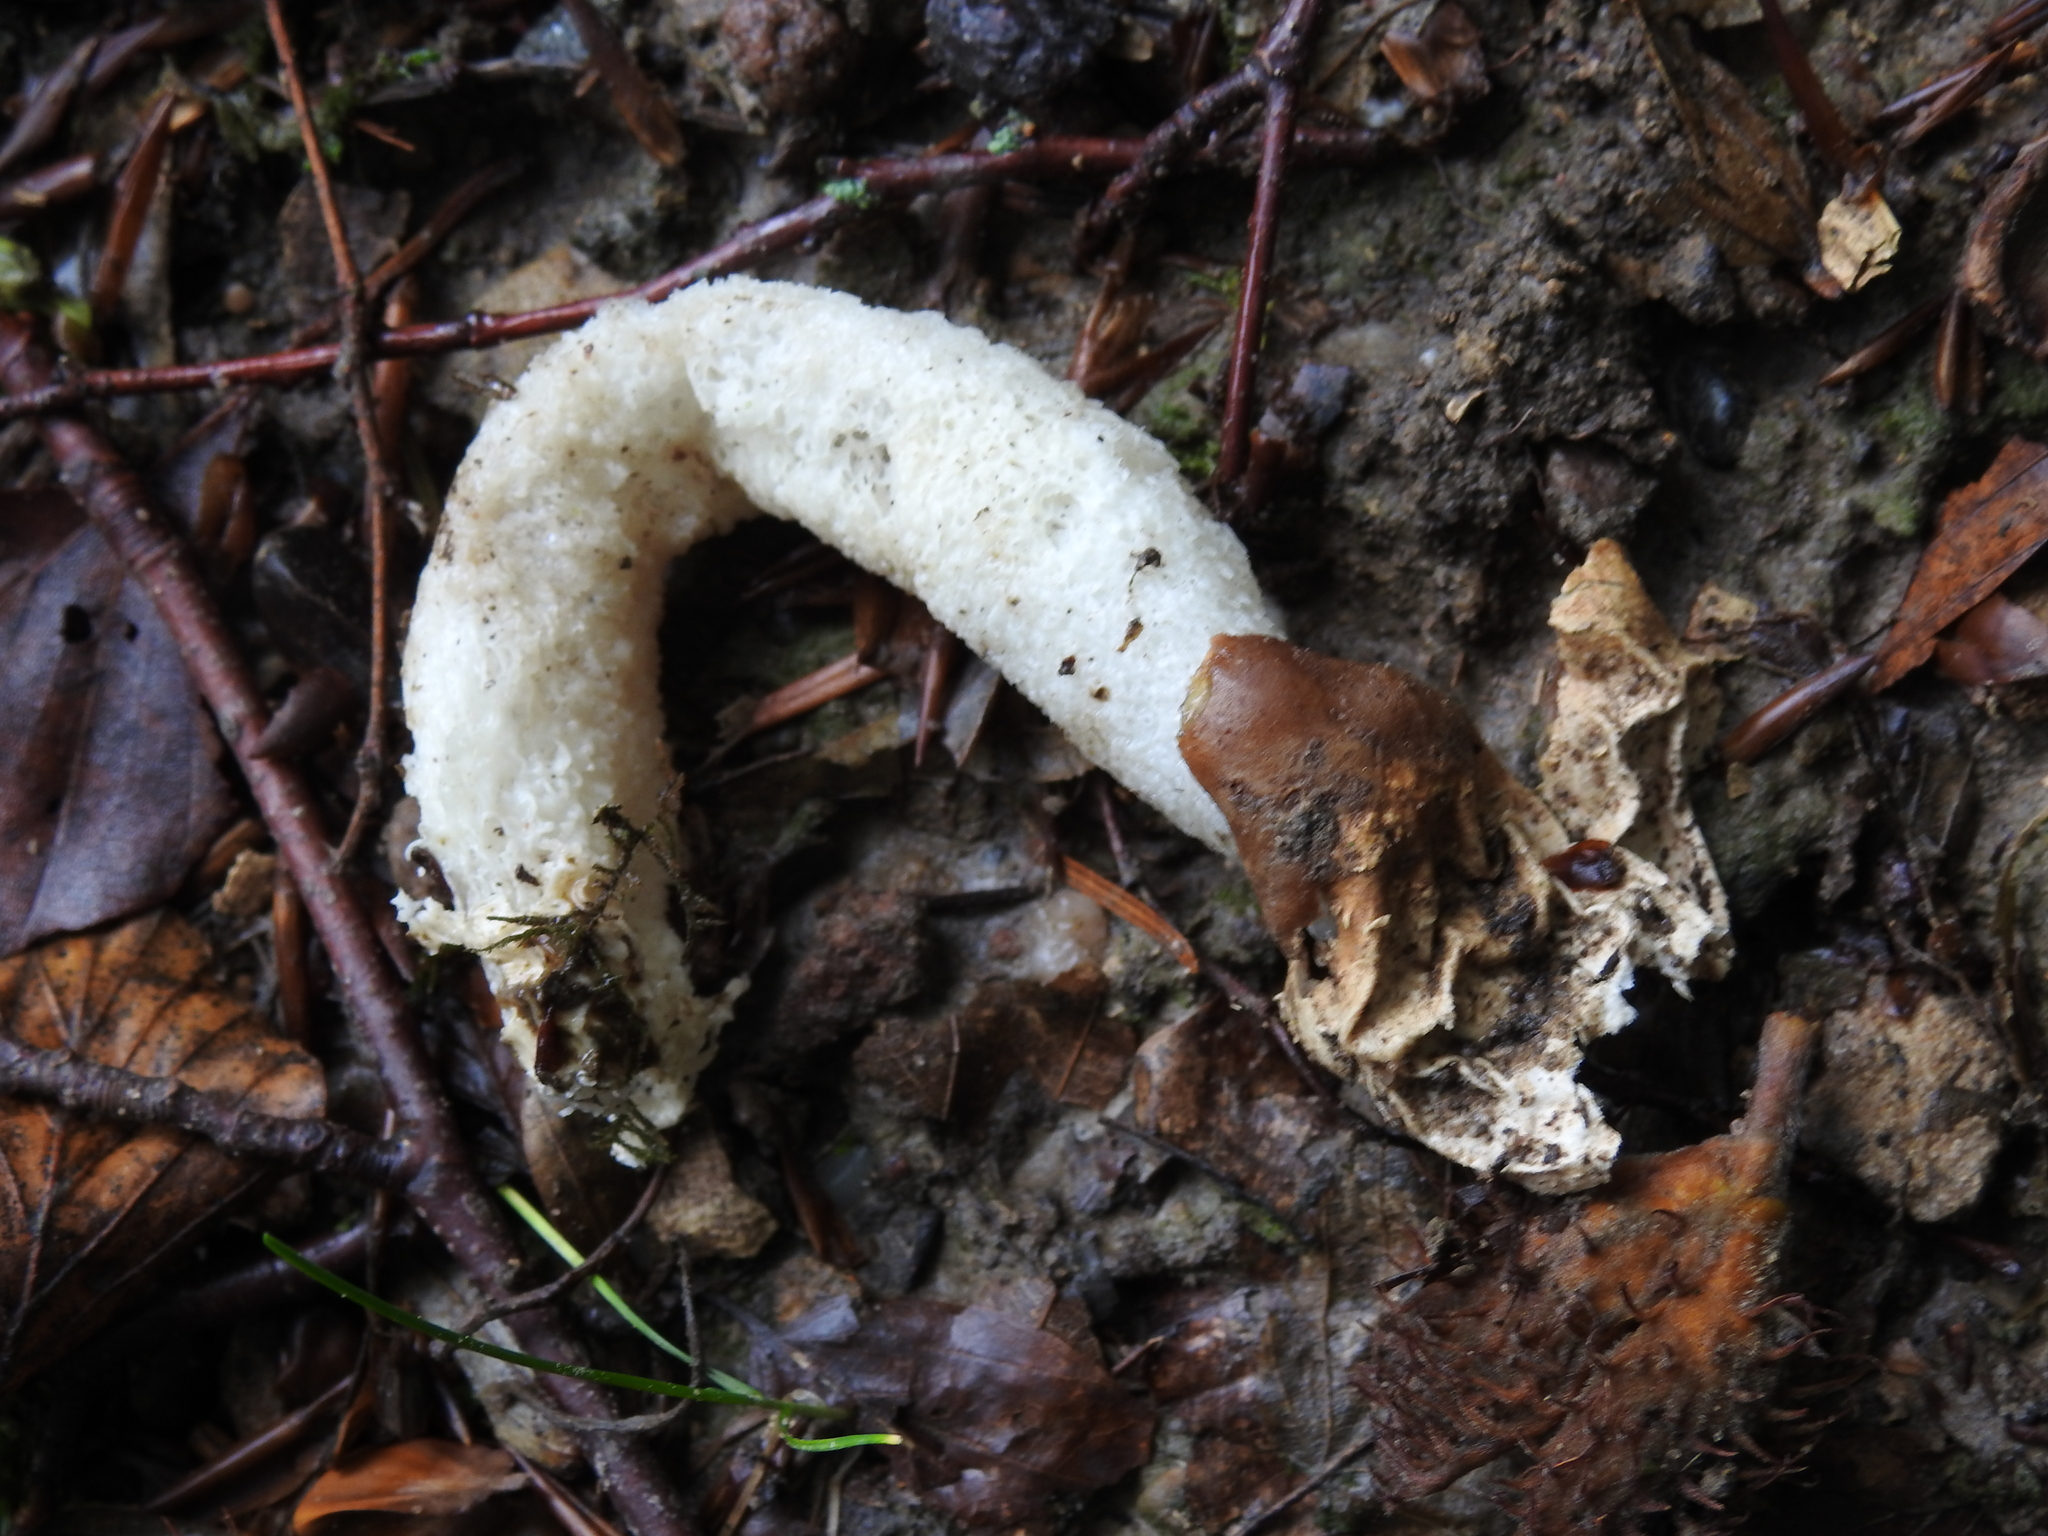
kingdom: Fungi
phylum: Basidiomycota
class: Agaricomycetes
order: Phallales
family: Phallaceae
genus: Phallus
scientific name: Phallus impudicus
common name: Common stinkhorn
